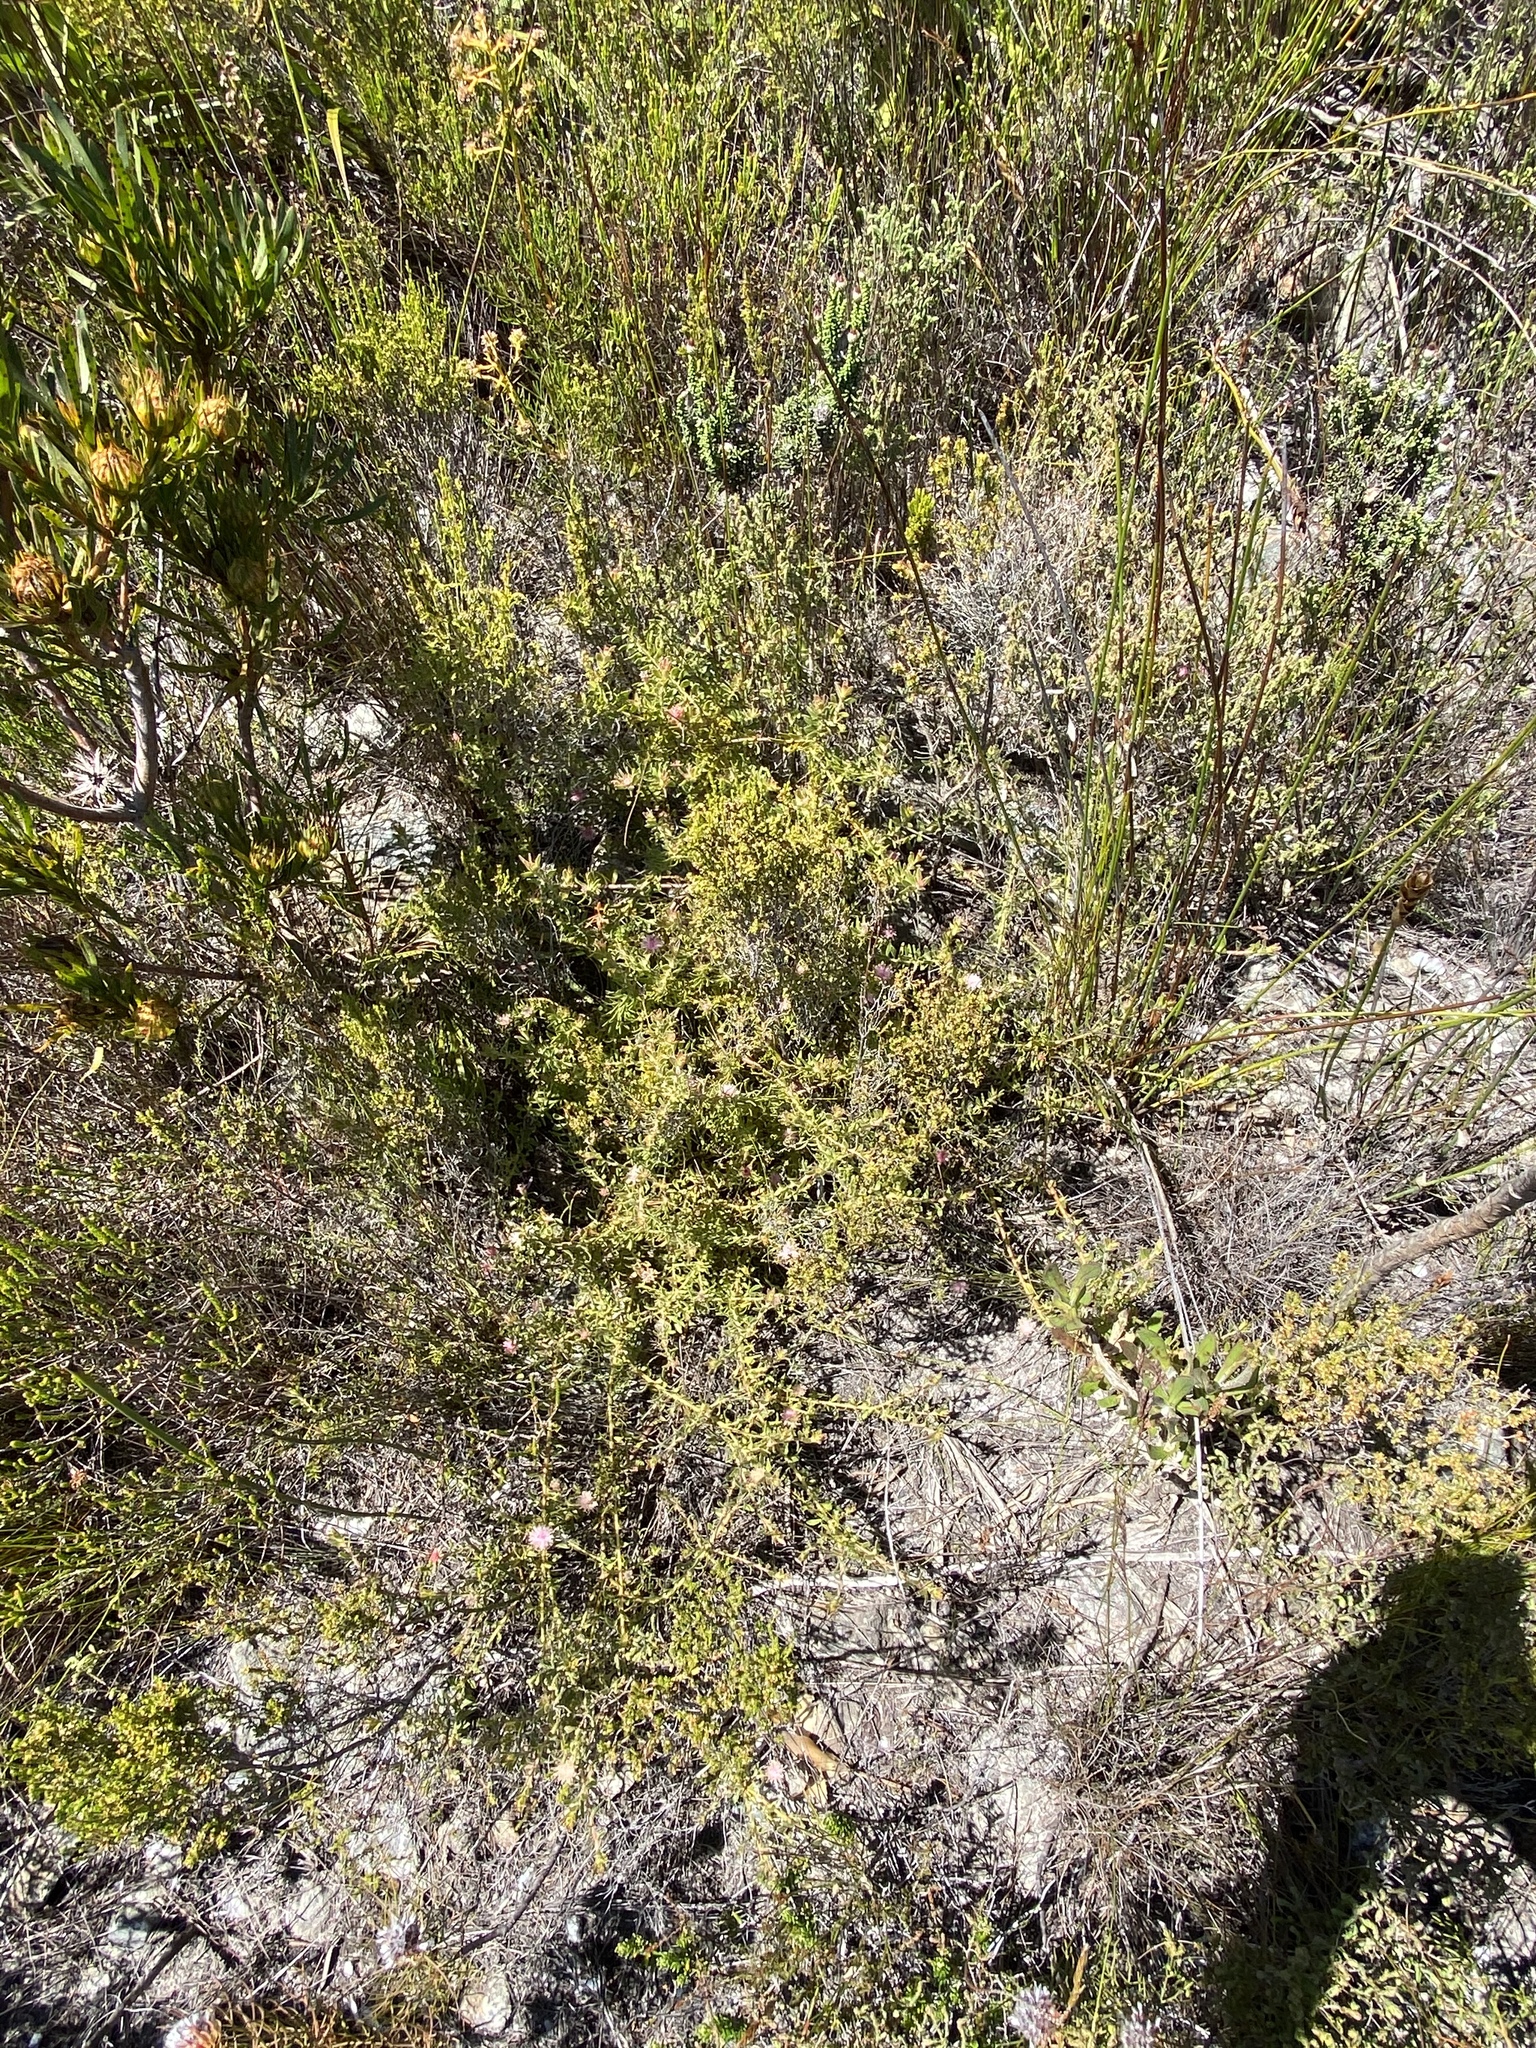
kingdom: Plantae
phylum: Tracheophyta
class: Magnoliopsida
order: Proteales
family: Proteaceae
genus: Diastella
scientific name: Diastella divaricata
